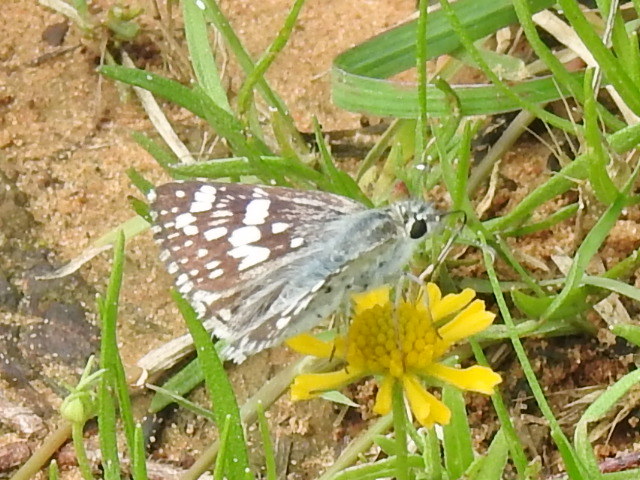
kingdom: Animalia
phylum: Arthropoda
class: Insecta
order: Lepidoptera
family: Hesperiidae
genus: Burnsius
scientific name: Burnsius
